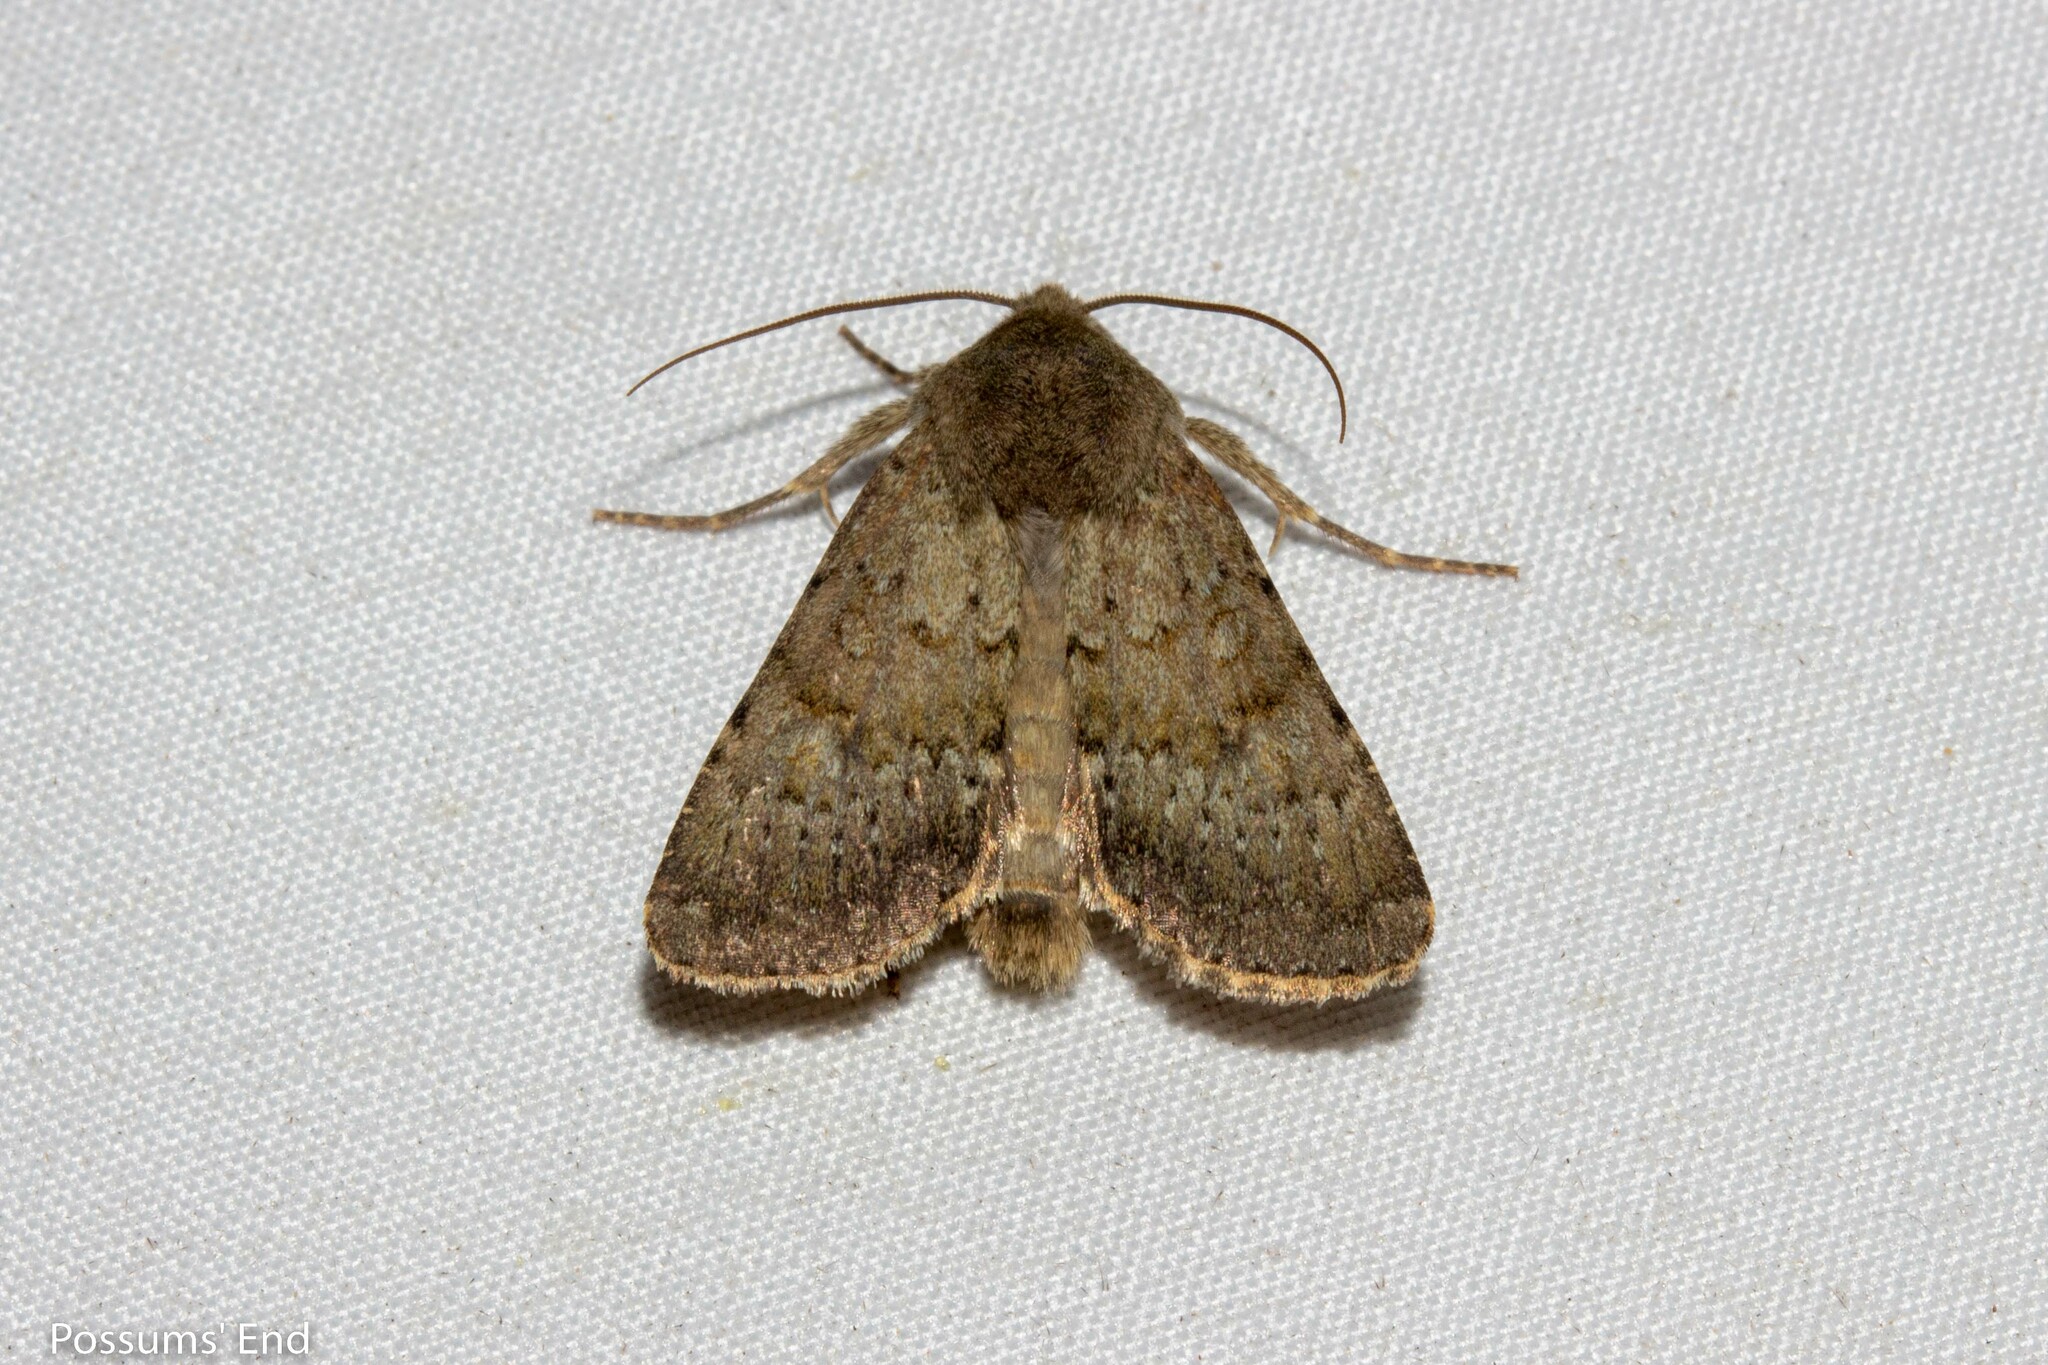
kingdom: Animalia
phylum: Arthropoda
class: Insecta
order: Lepidoptera
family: Noctuidae
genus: Ichneutica
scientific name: Ichneutica moderata
